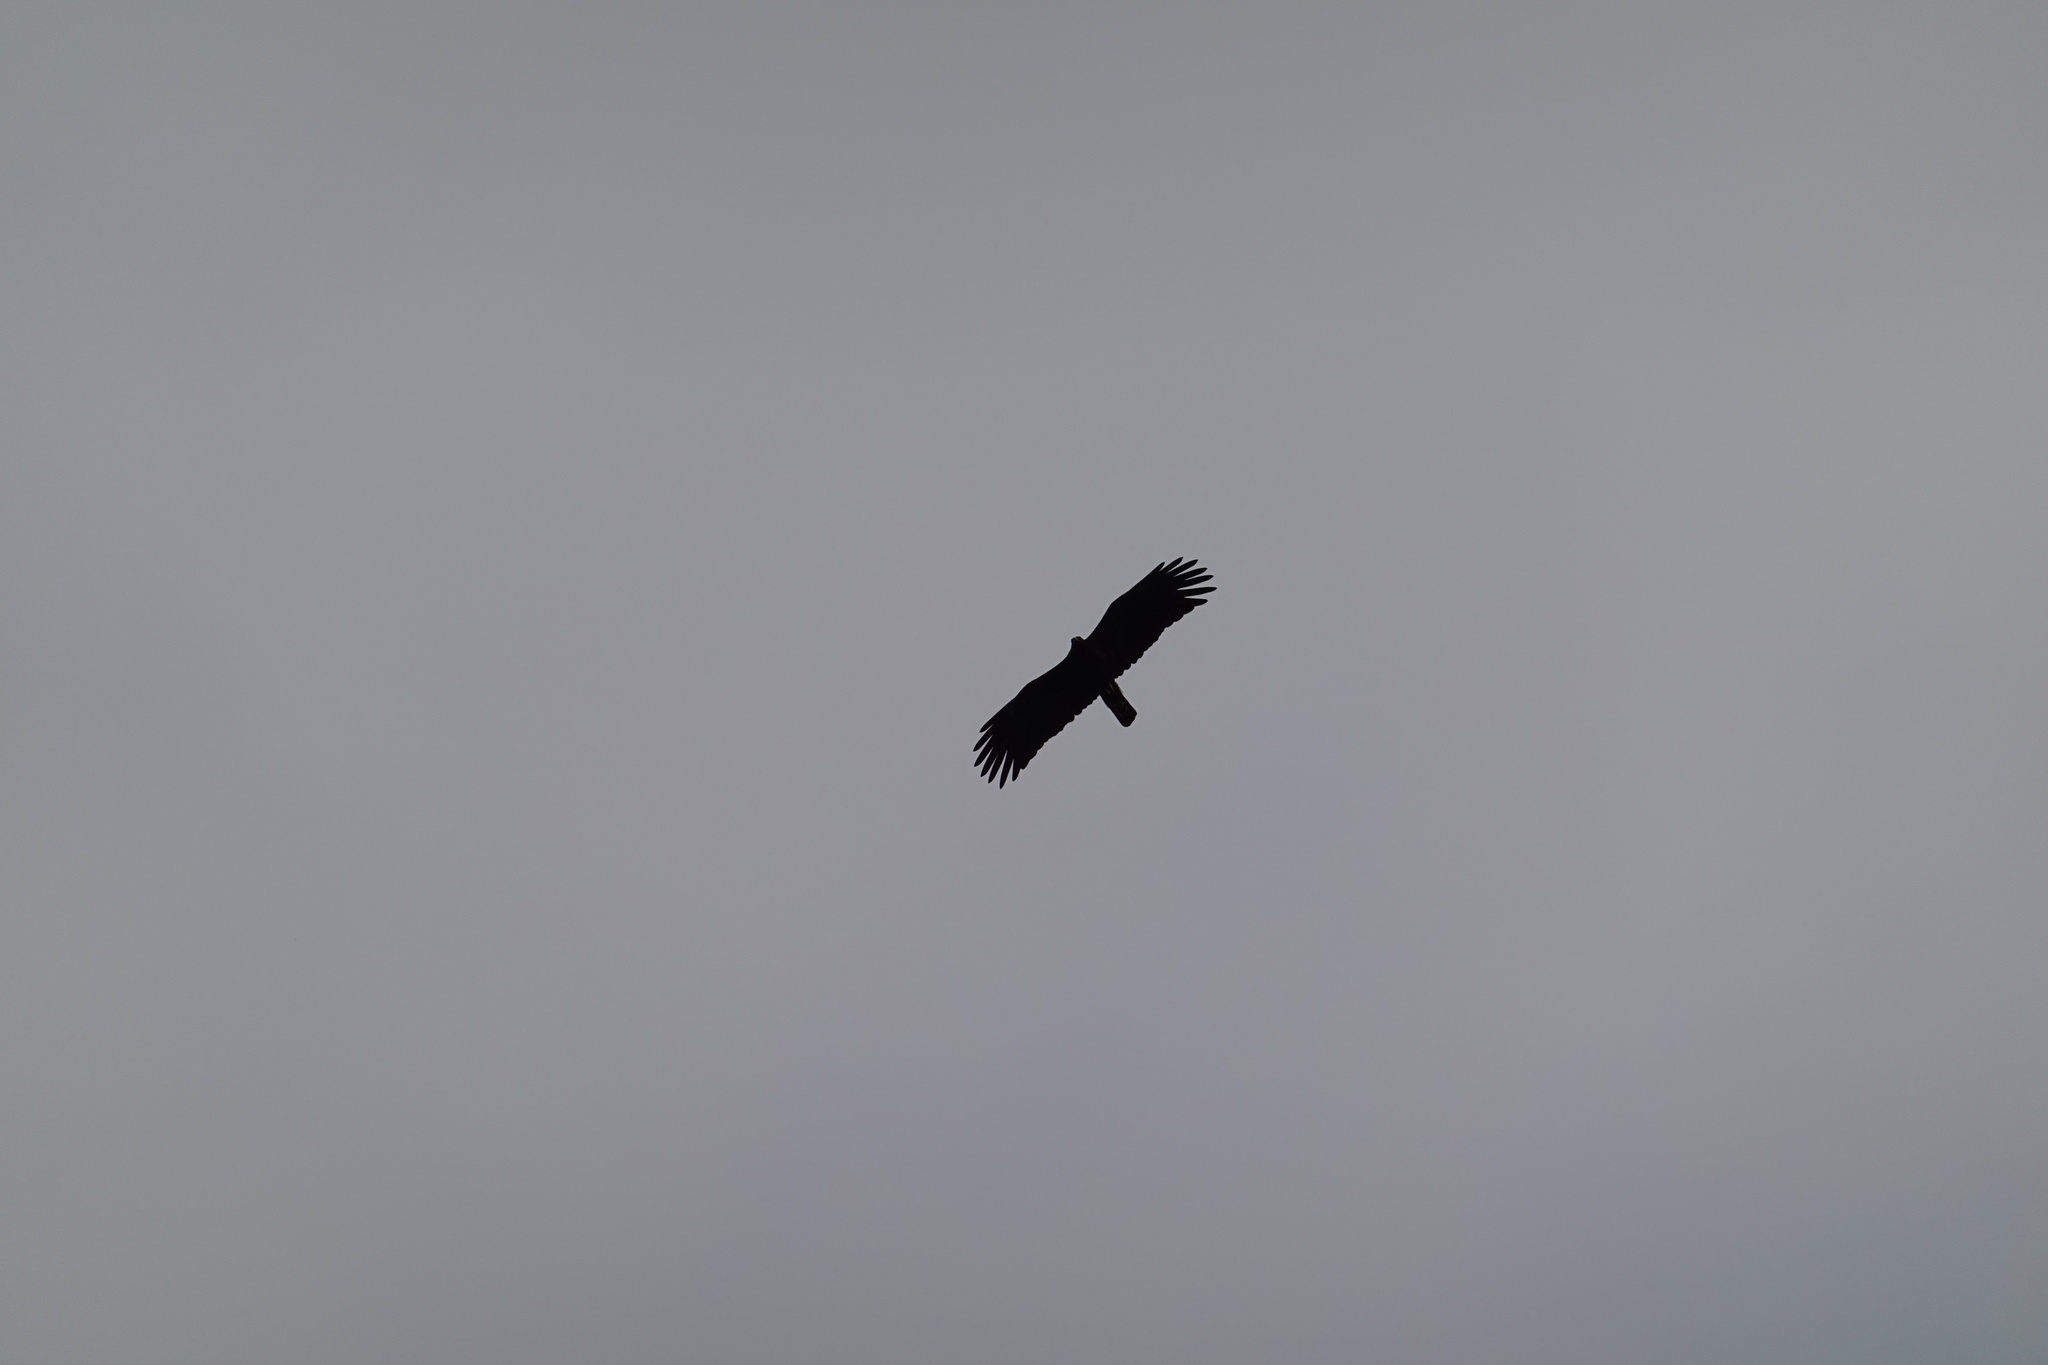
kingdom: Animalia
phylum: Chordata
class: Aves
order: Accipitriformes
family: Accipitridae
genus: Ictinaetus
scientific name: Ictinaetus malayensis
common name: Black eagle
